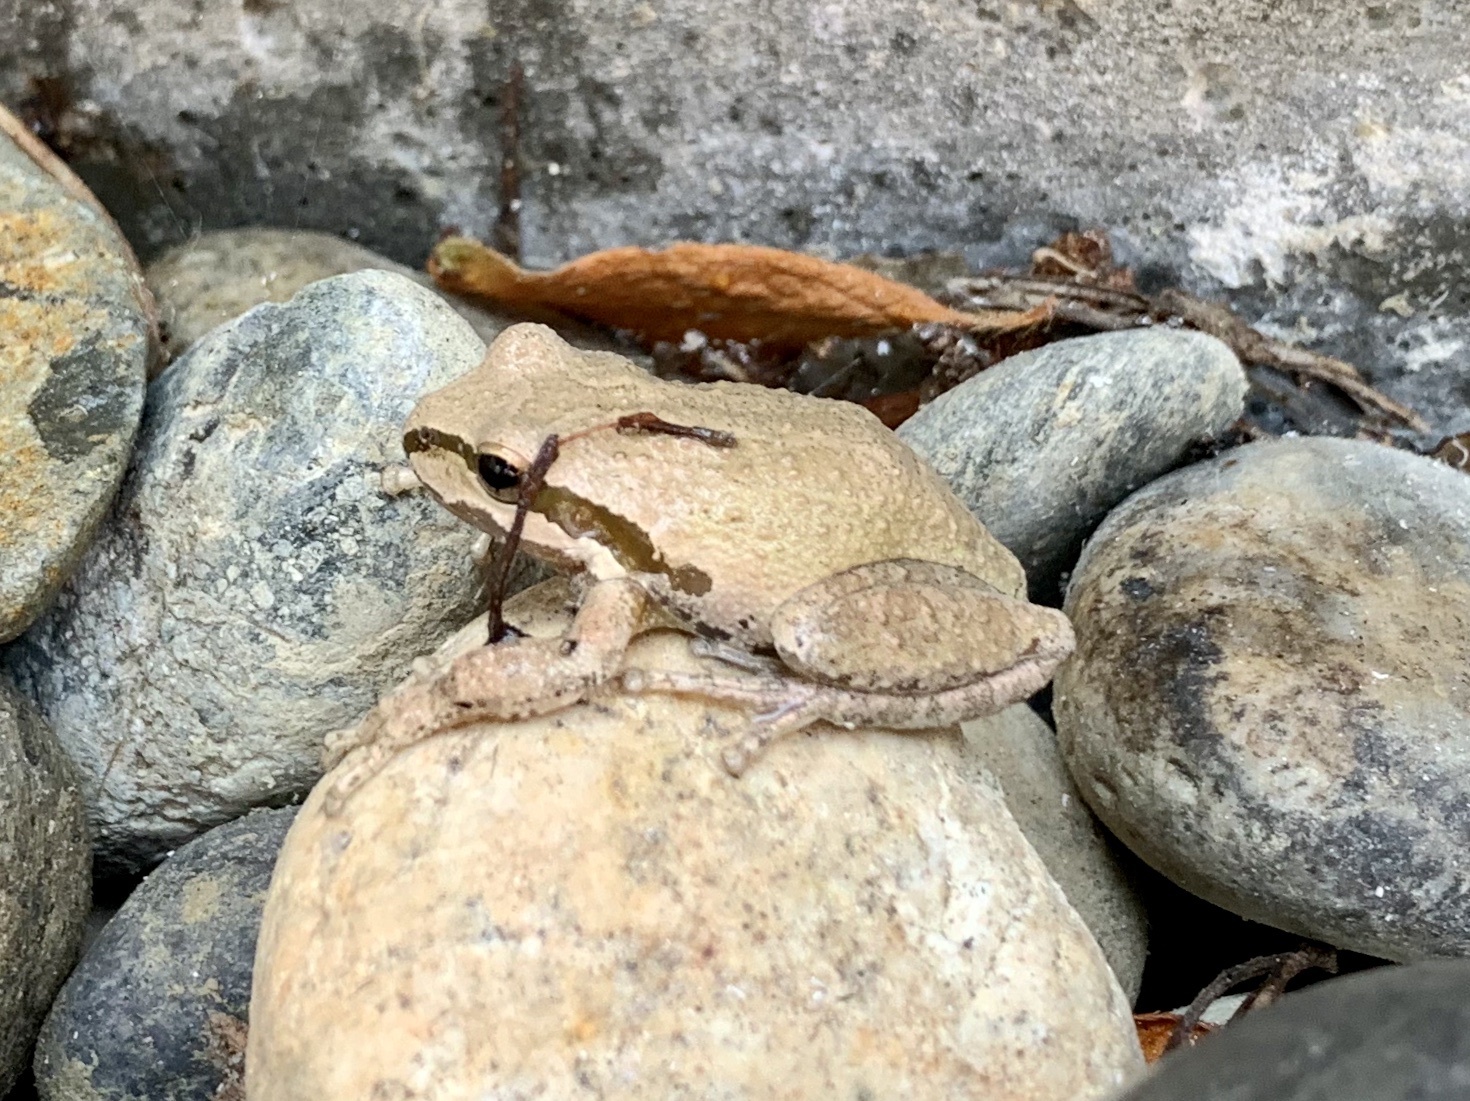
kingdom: Animalia
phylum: Chordata
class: Amphibia
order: Anura
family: Hylidae
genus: Pseudacris
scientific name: Pseudacris regilla
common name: Pacific chorus frog
